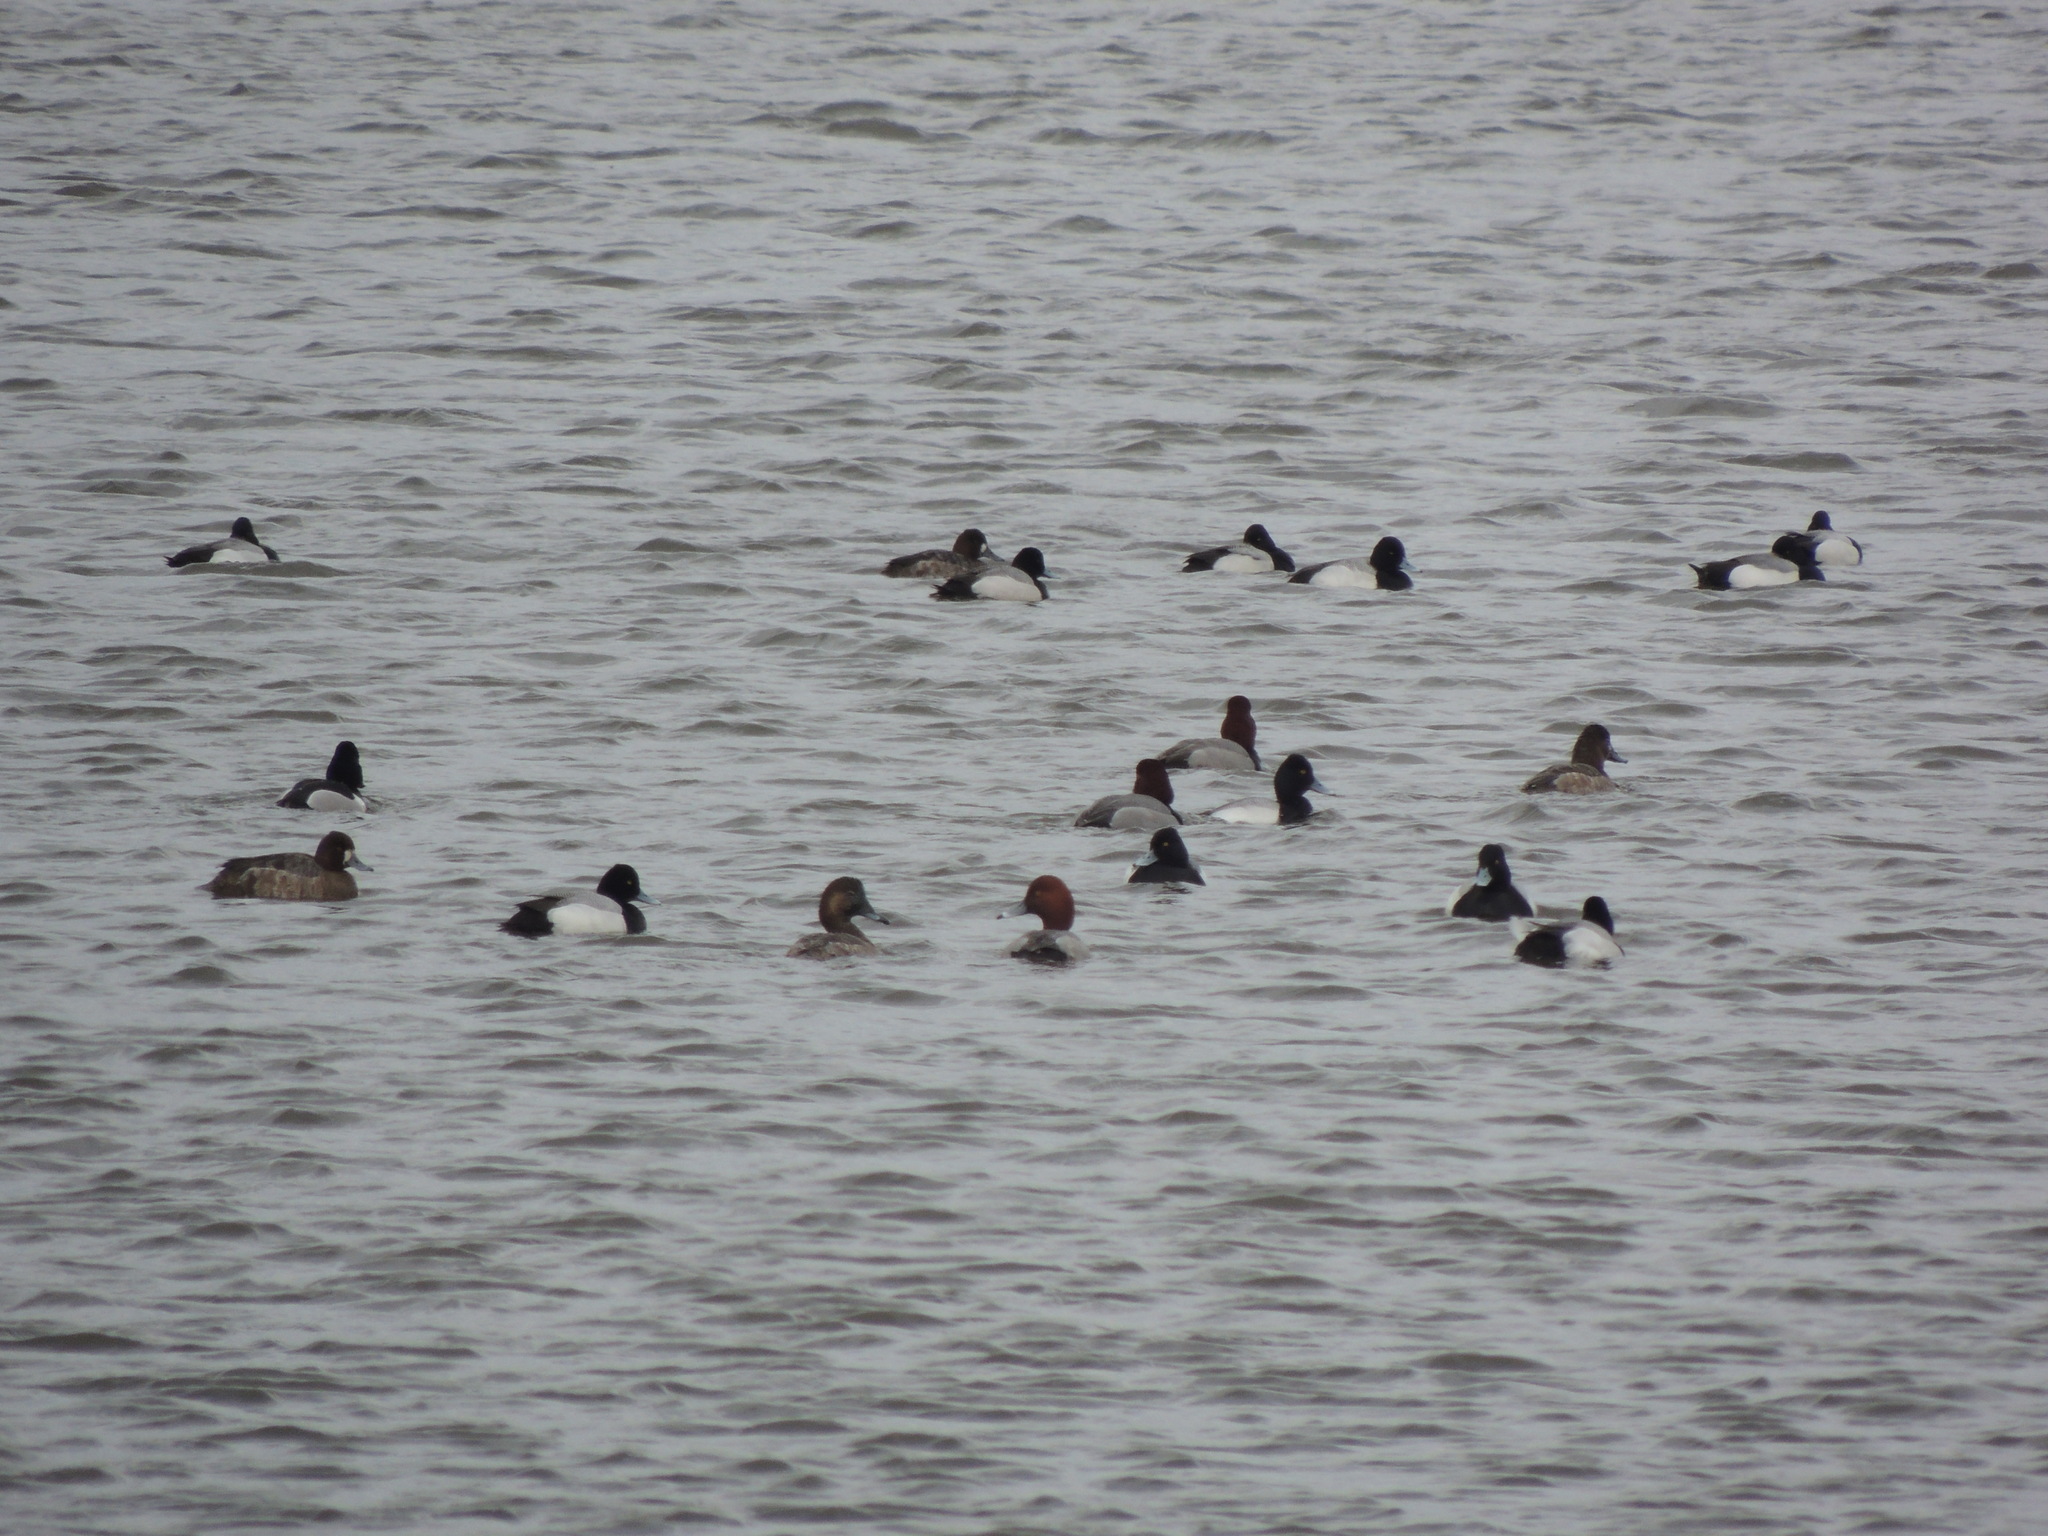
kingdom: Animalia
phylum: Chordata
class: Aves
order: Anseriformes
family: Anatidae
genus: Aythya
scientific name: Aythya americana
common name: Redhead
